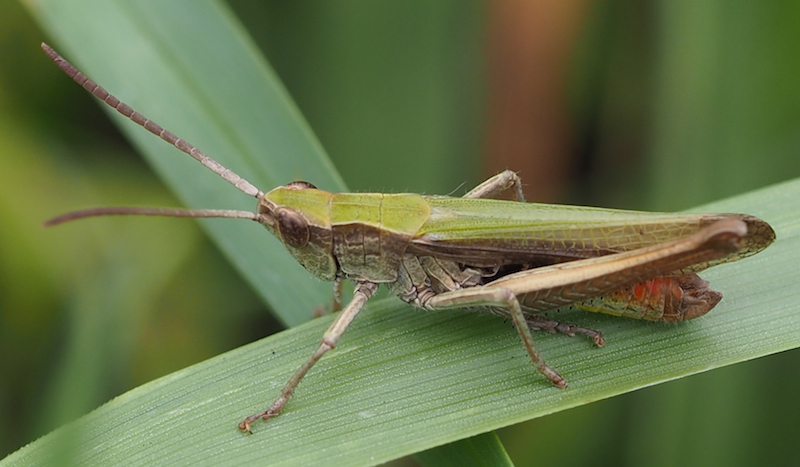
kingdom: Animalia
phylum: Arthropoda
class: Insecta
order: Orthoptera
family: Acrididae
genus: Chorthippus
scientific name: Chorthippus dorsatus
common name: Steppe grasshopper
